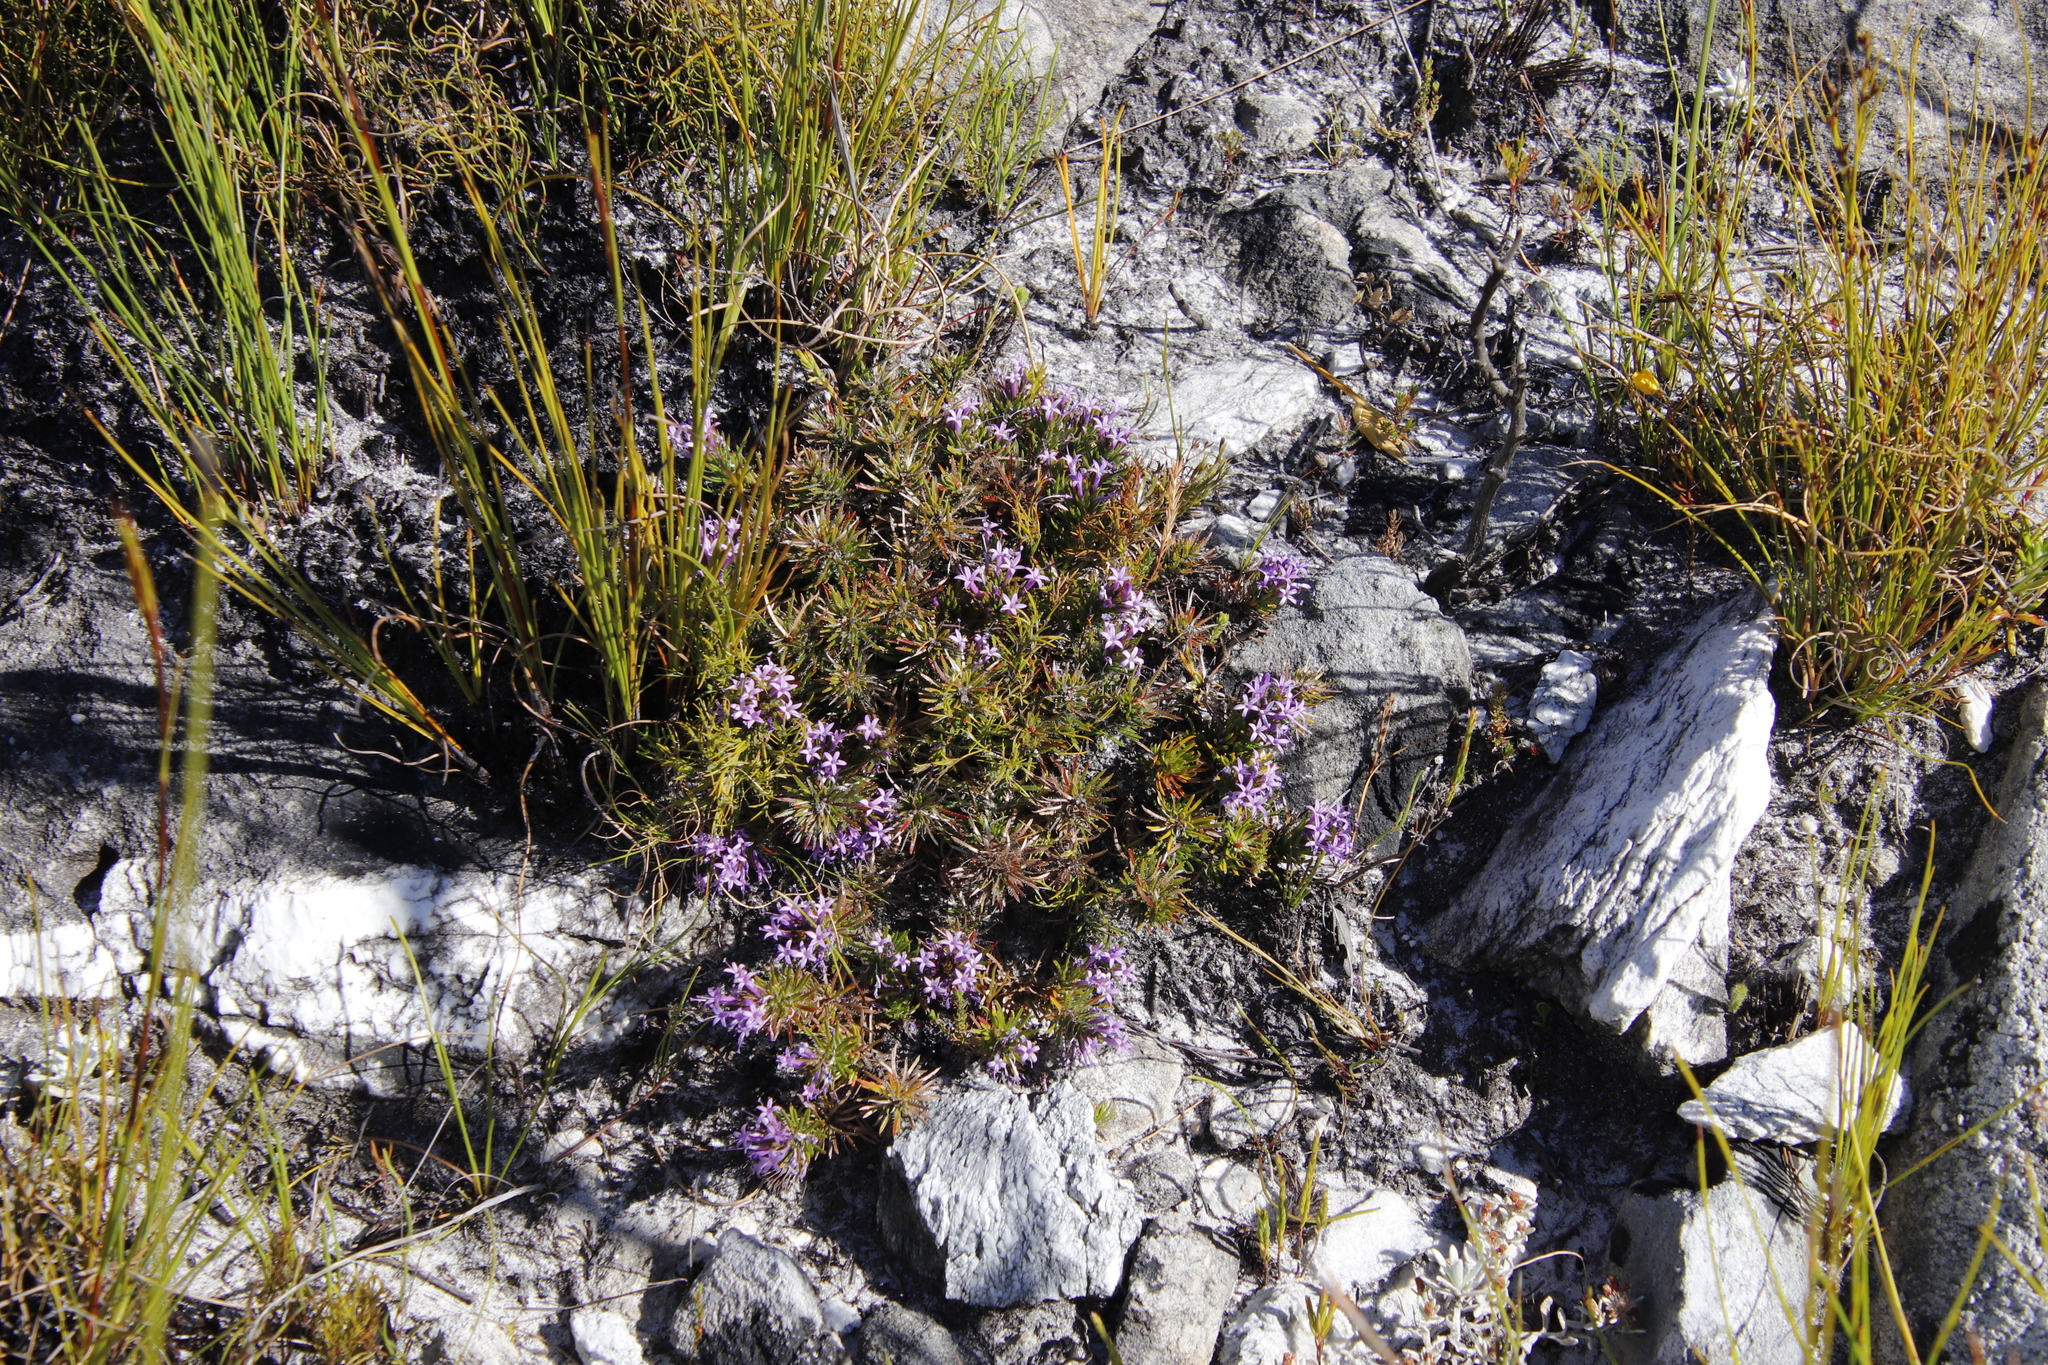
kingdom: Plantae
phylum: Tracheophyta
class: Magnoliopsida
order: Asterales
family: Campanulaceae
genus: Merciera
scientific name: Merciera azurea
